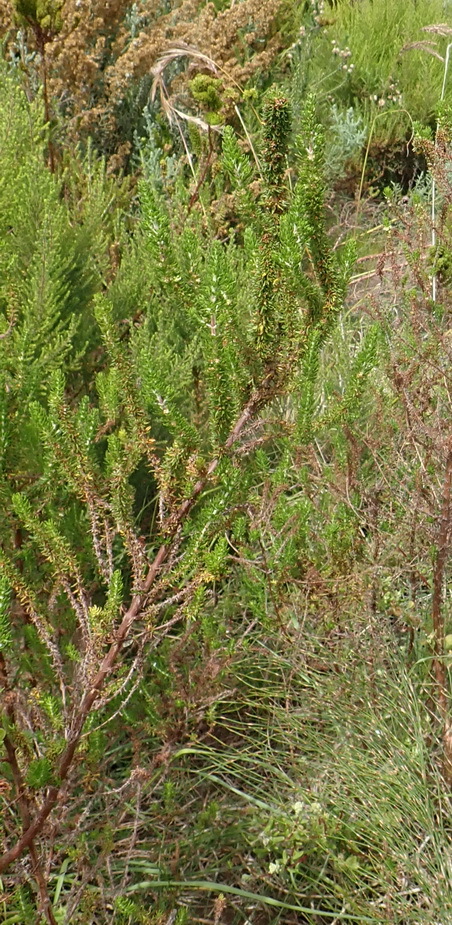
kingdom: Plantae
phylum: Tracheophyta
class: Magnoliopsida
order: Gentianales
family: Rubiaceae
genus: Anthospermum
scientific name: Anthospermum aethiopicum
